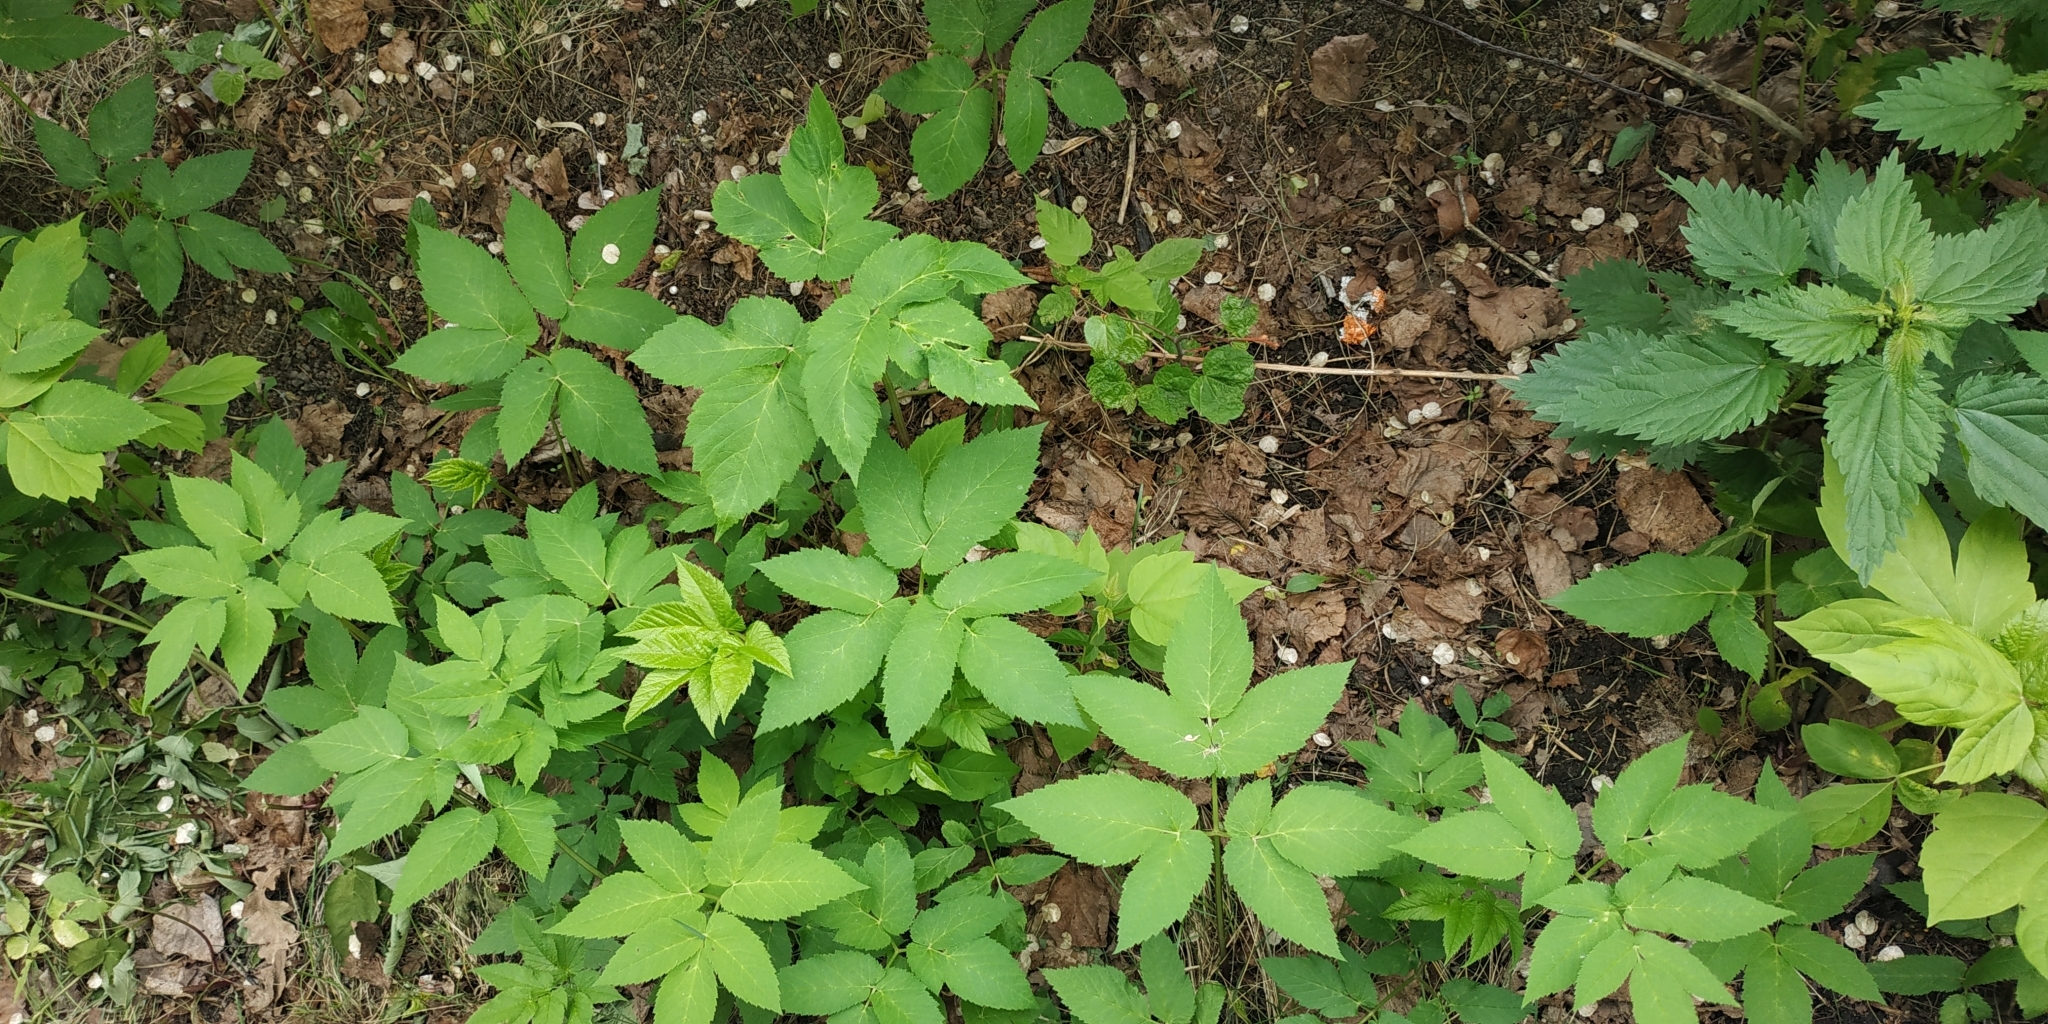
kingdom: Plantae
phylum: Tracheophyta
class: Magnoliopsida
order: Apiales
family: Apiaceae
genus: Aegopodium
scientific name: Aegopodium podagraria
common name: Ground-elder
